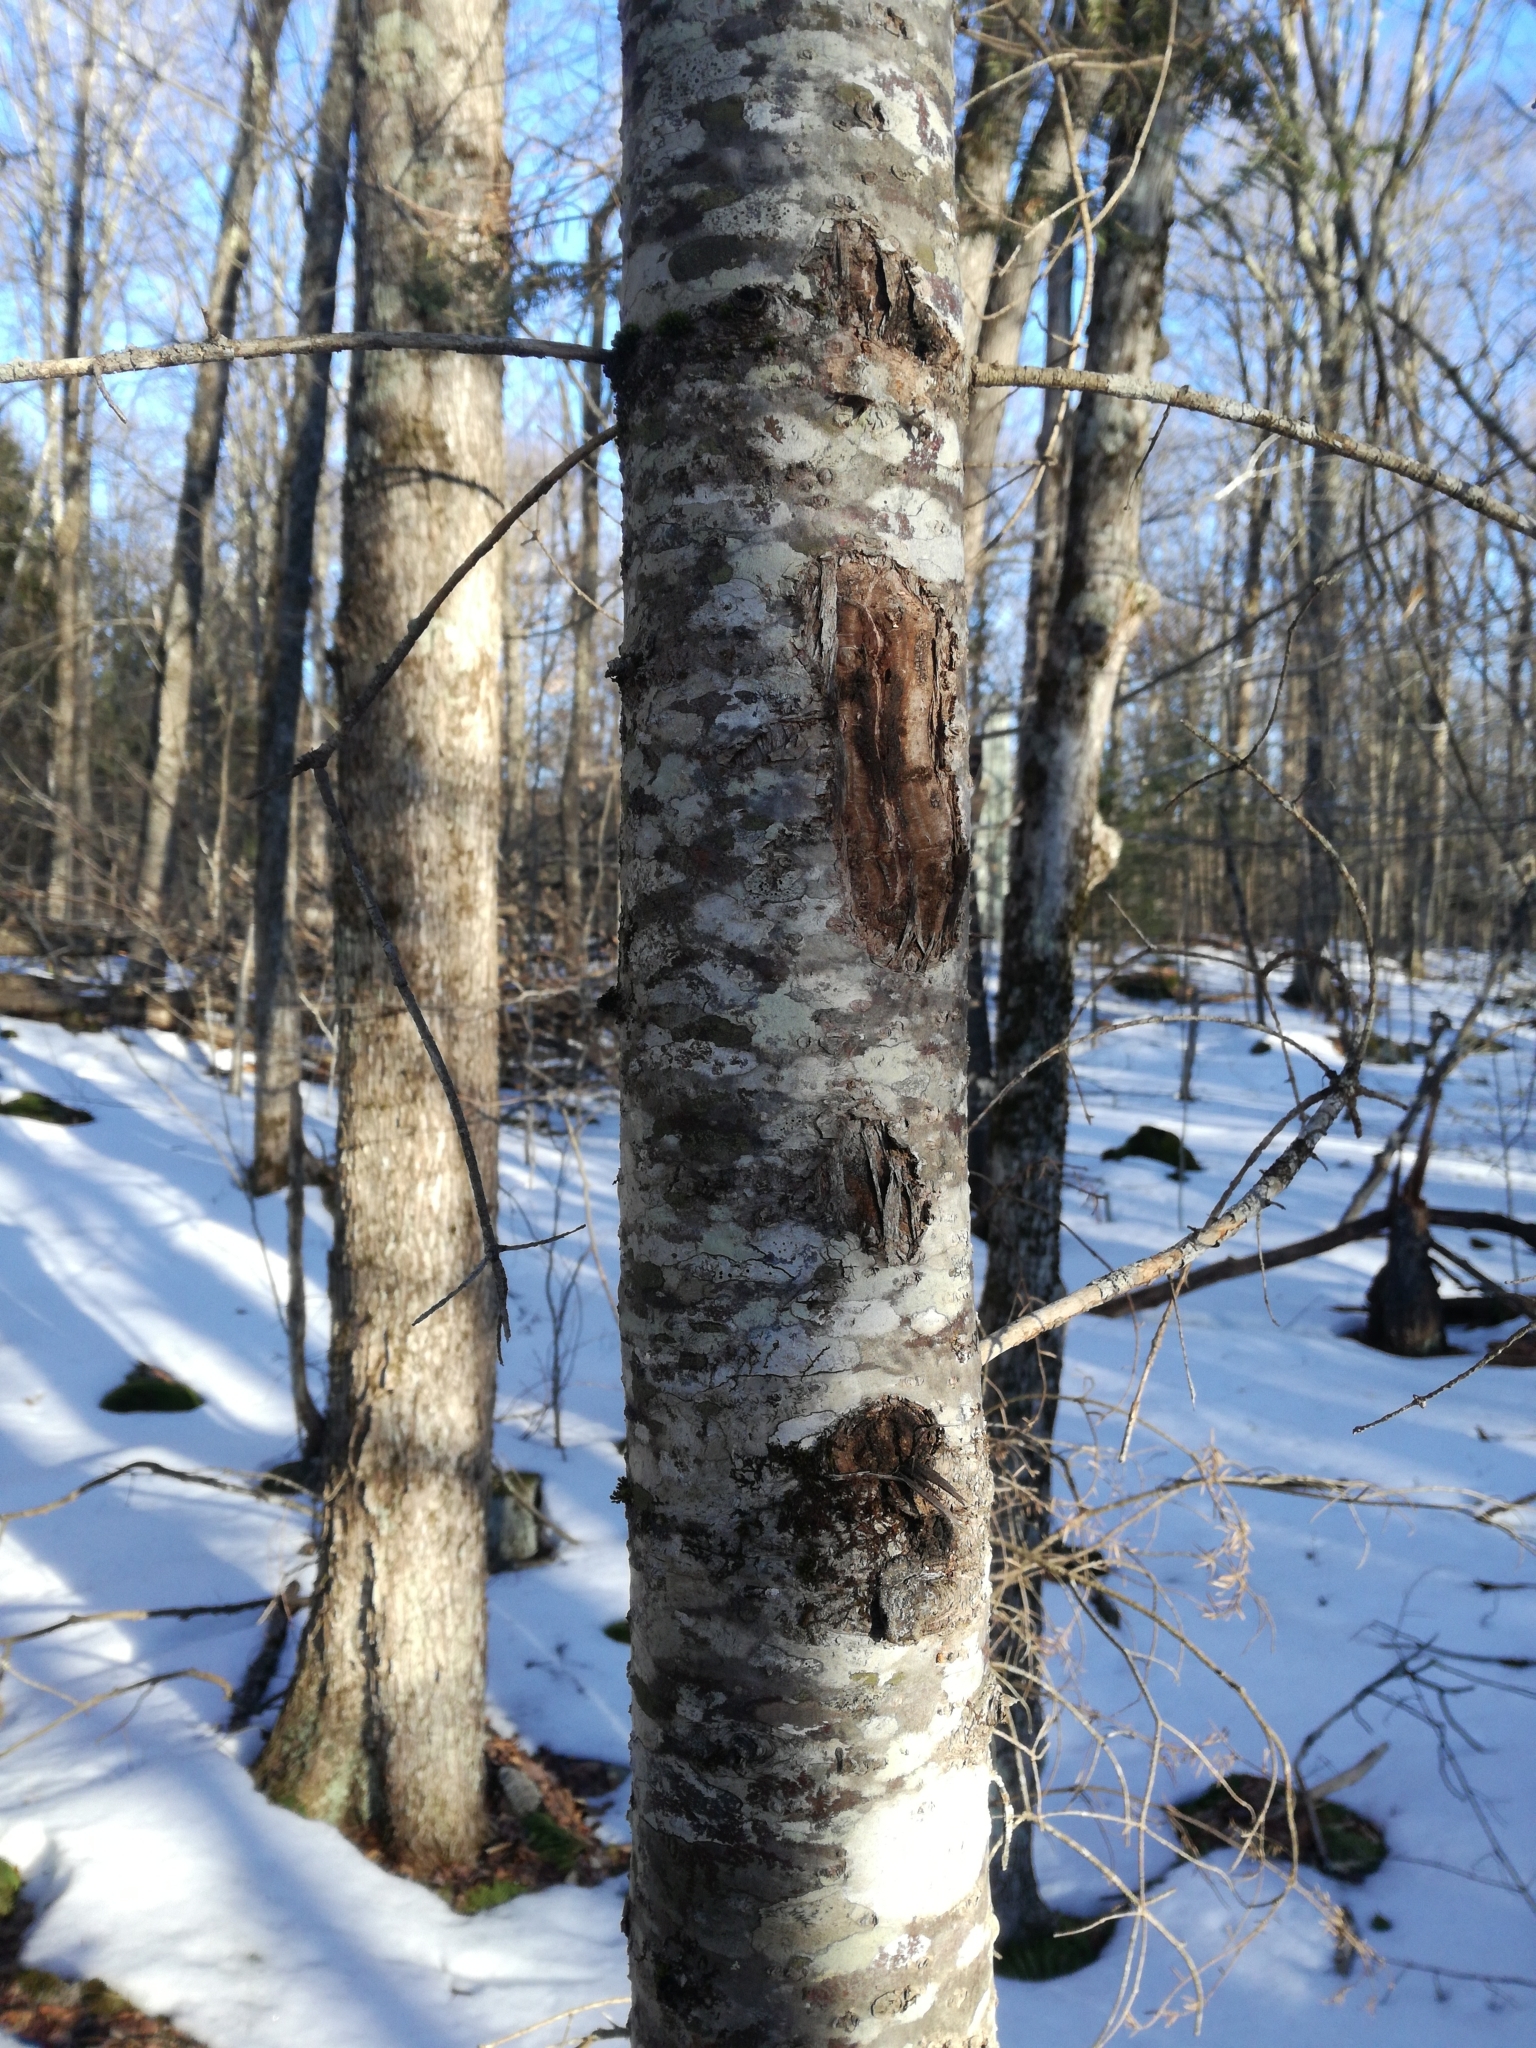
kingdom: Plantae
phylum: Tracheophyta
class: Pinopsida
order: Pinales
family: Pinaceae
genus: Abies
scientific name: Abies balsamea
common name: Balsam fir
